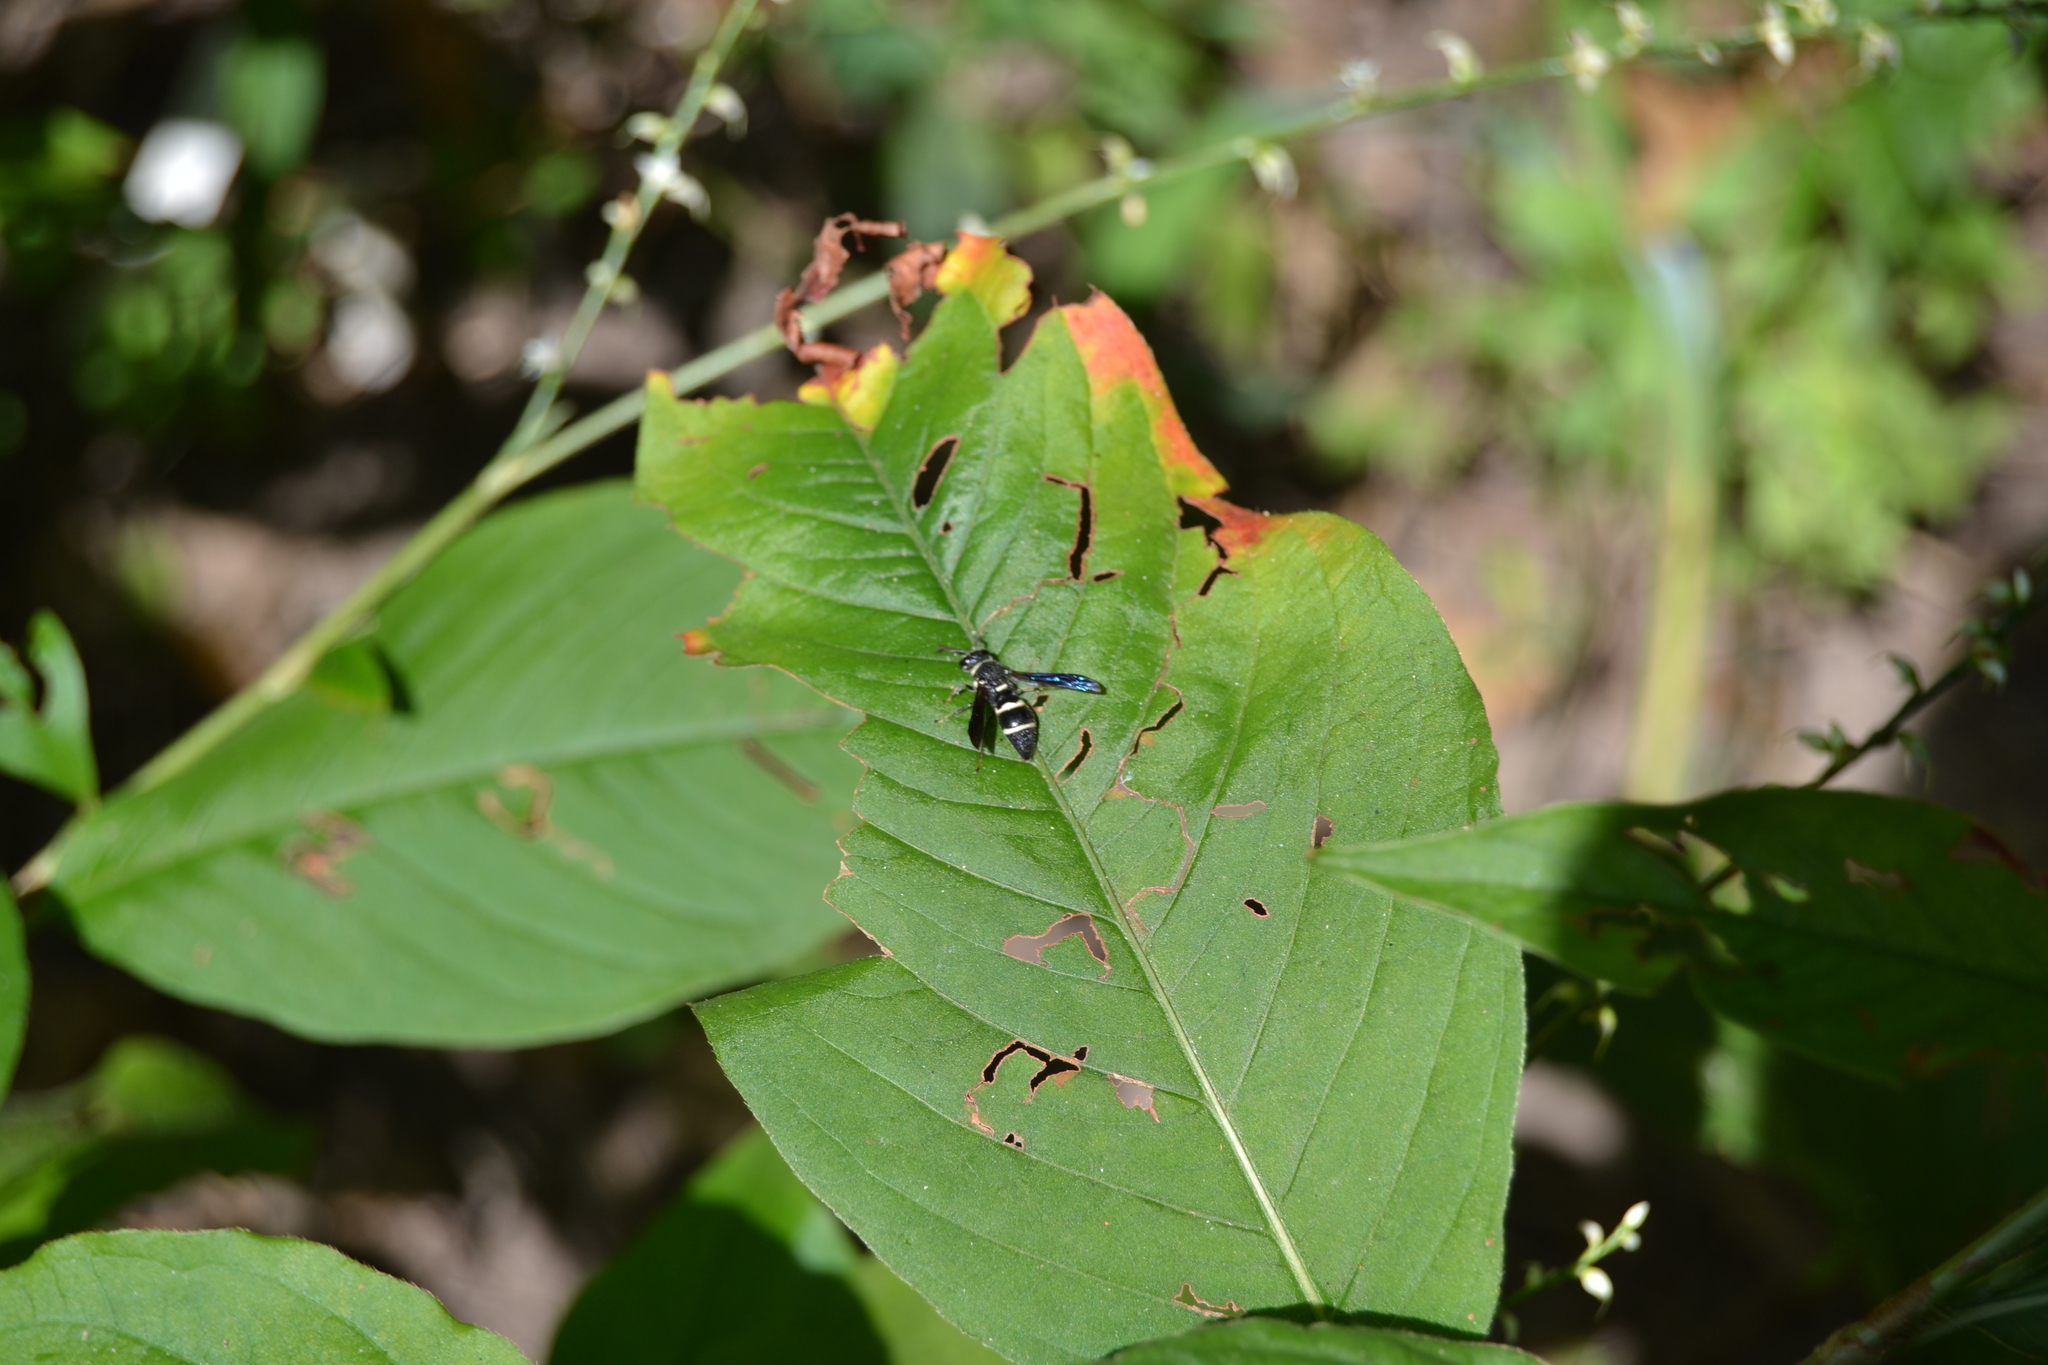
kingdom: Animalia
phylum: Arthropoda
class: Insecta
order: Hymenoptera
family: Eumenidae
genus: Euodynerus
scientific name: Euodynerus megaera
